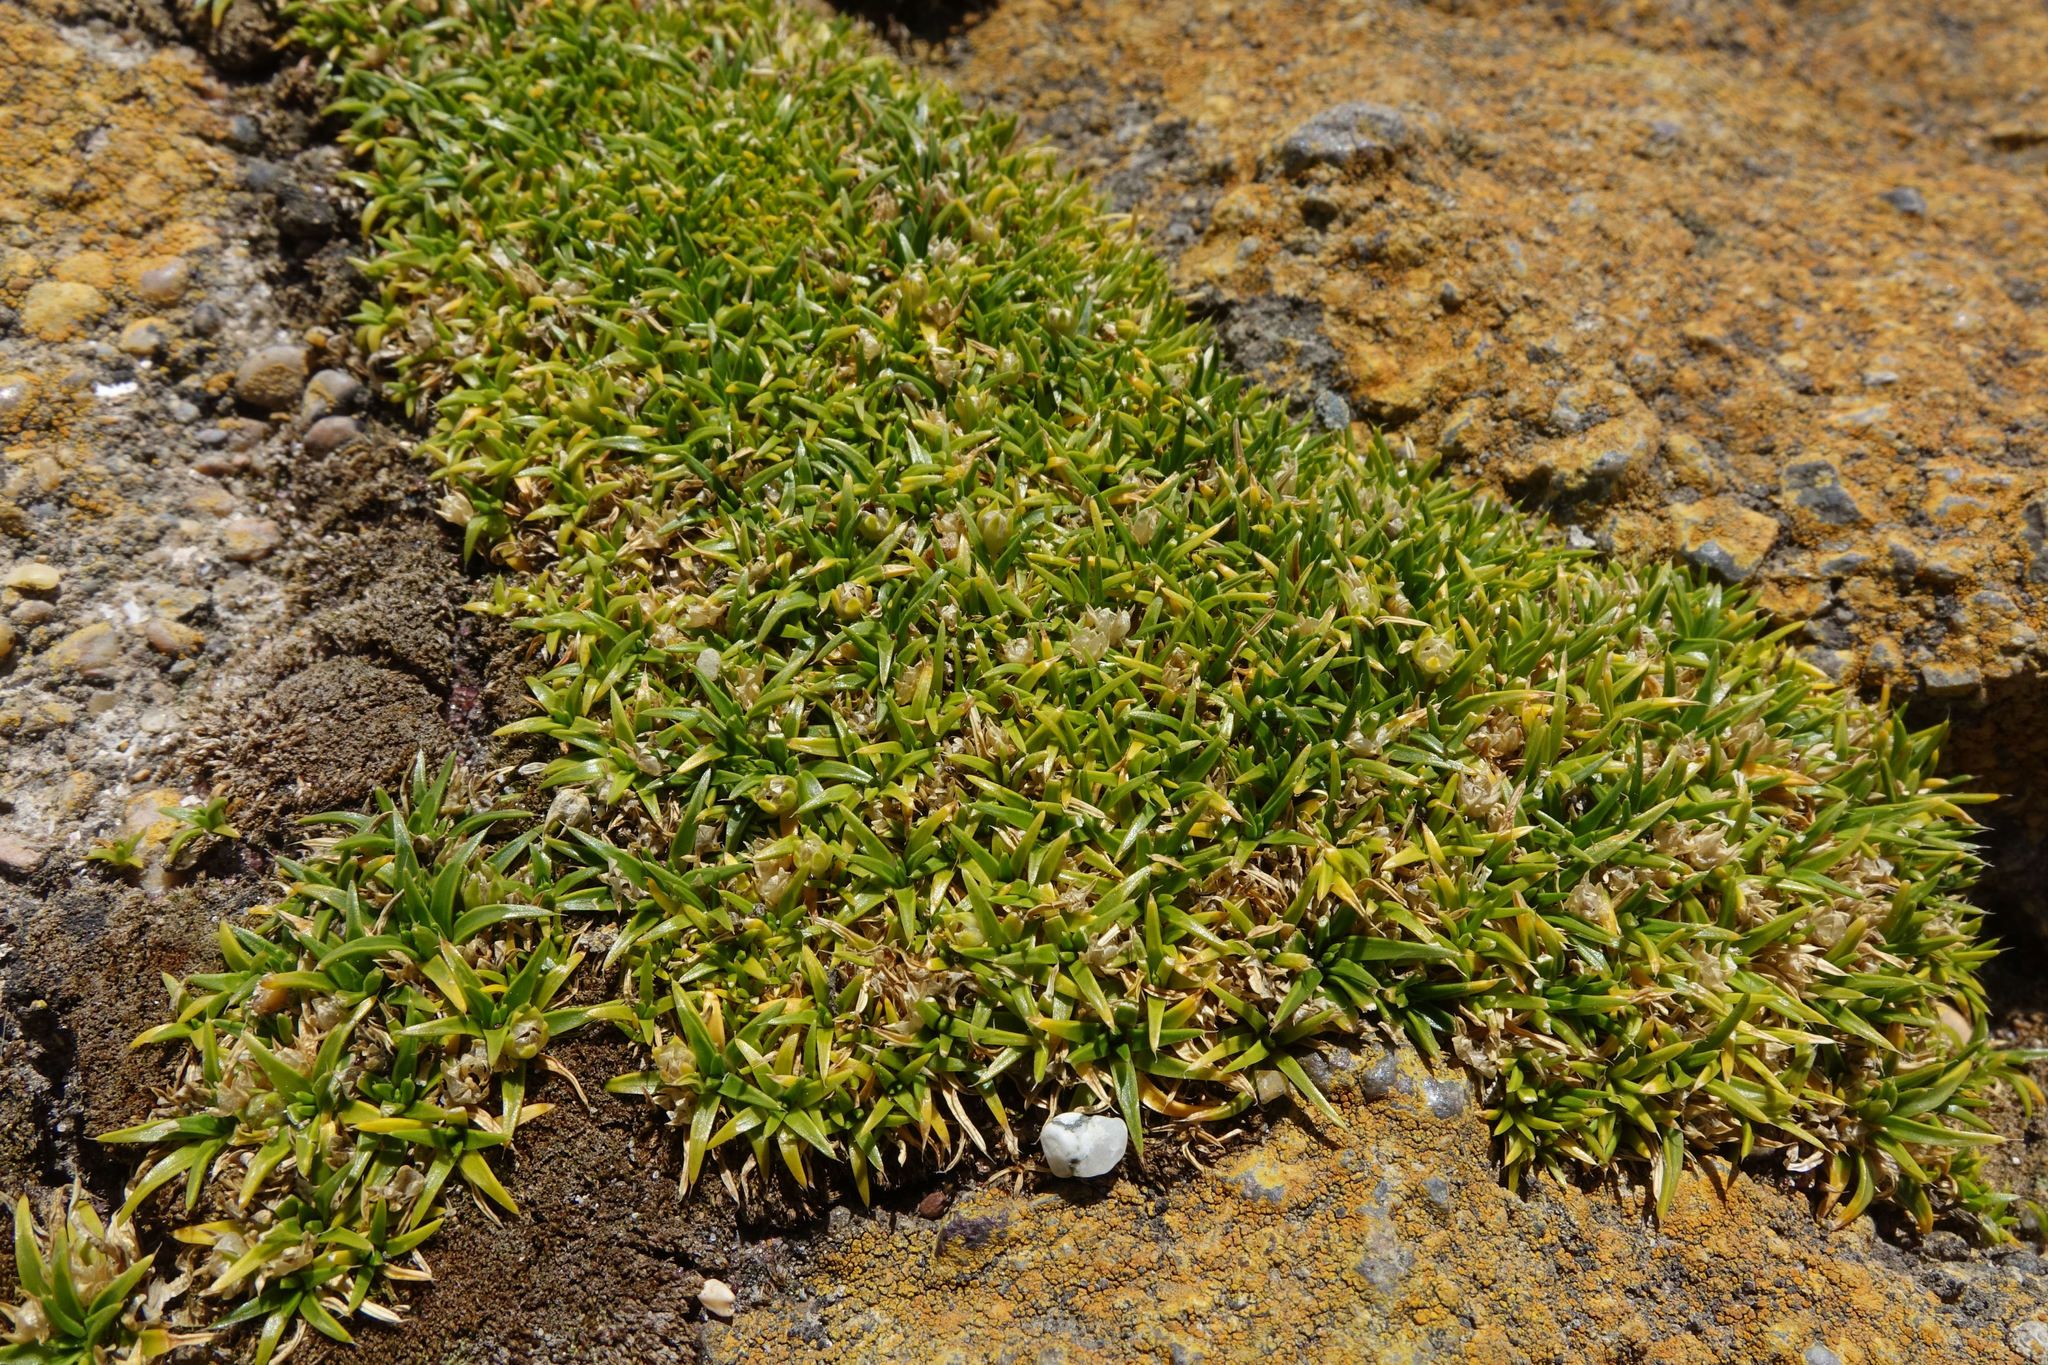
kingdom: Plantae
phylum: Tracheophyta
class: Magnoliopsida
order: Caryophyllales
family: Caryophyllaceae
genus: Colobanthus
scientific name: Colobanthus muelleri
